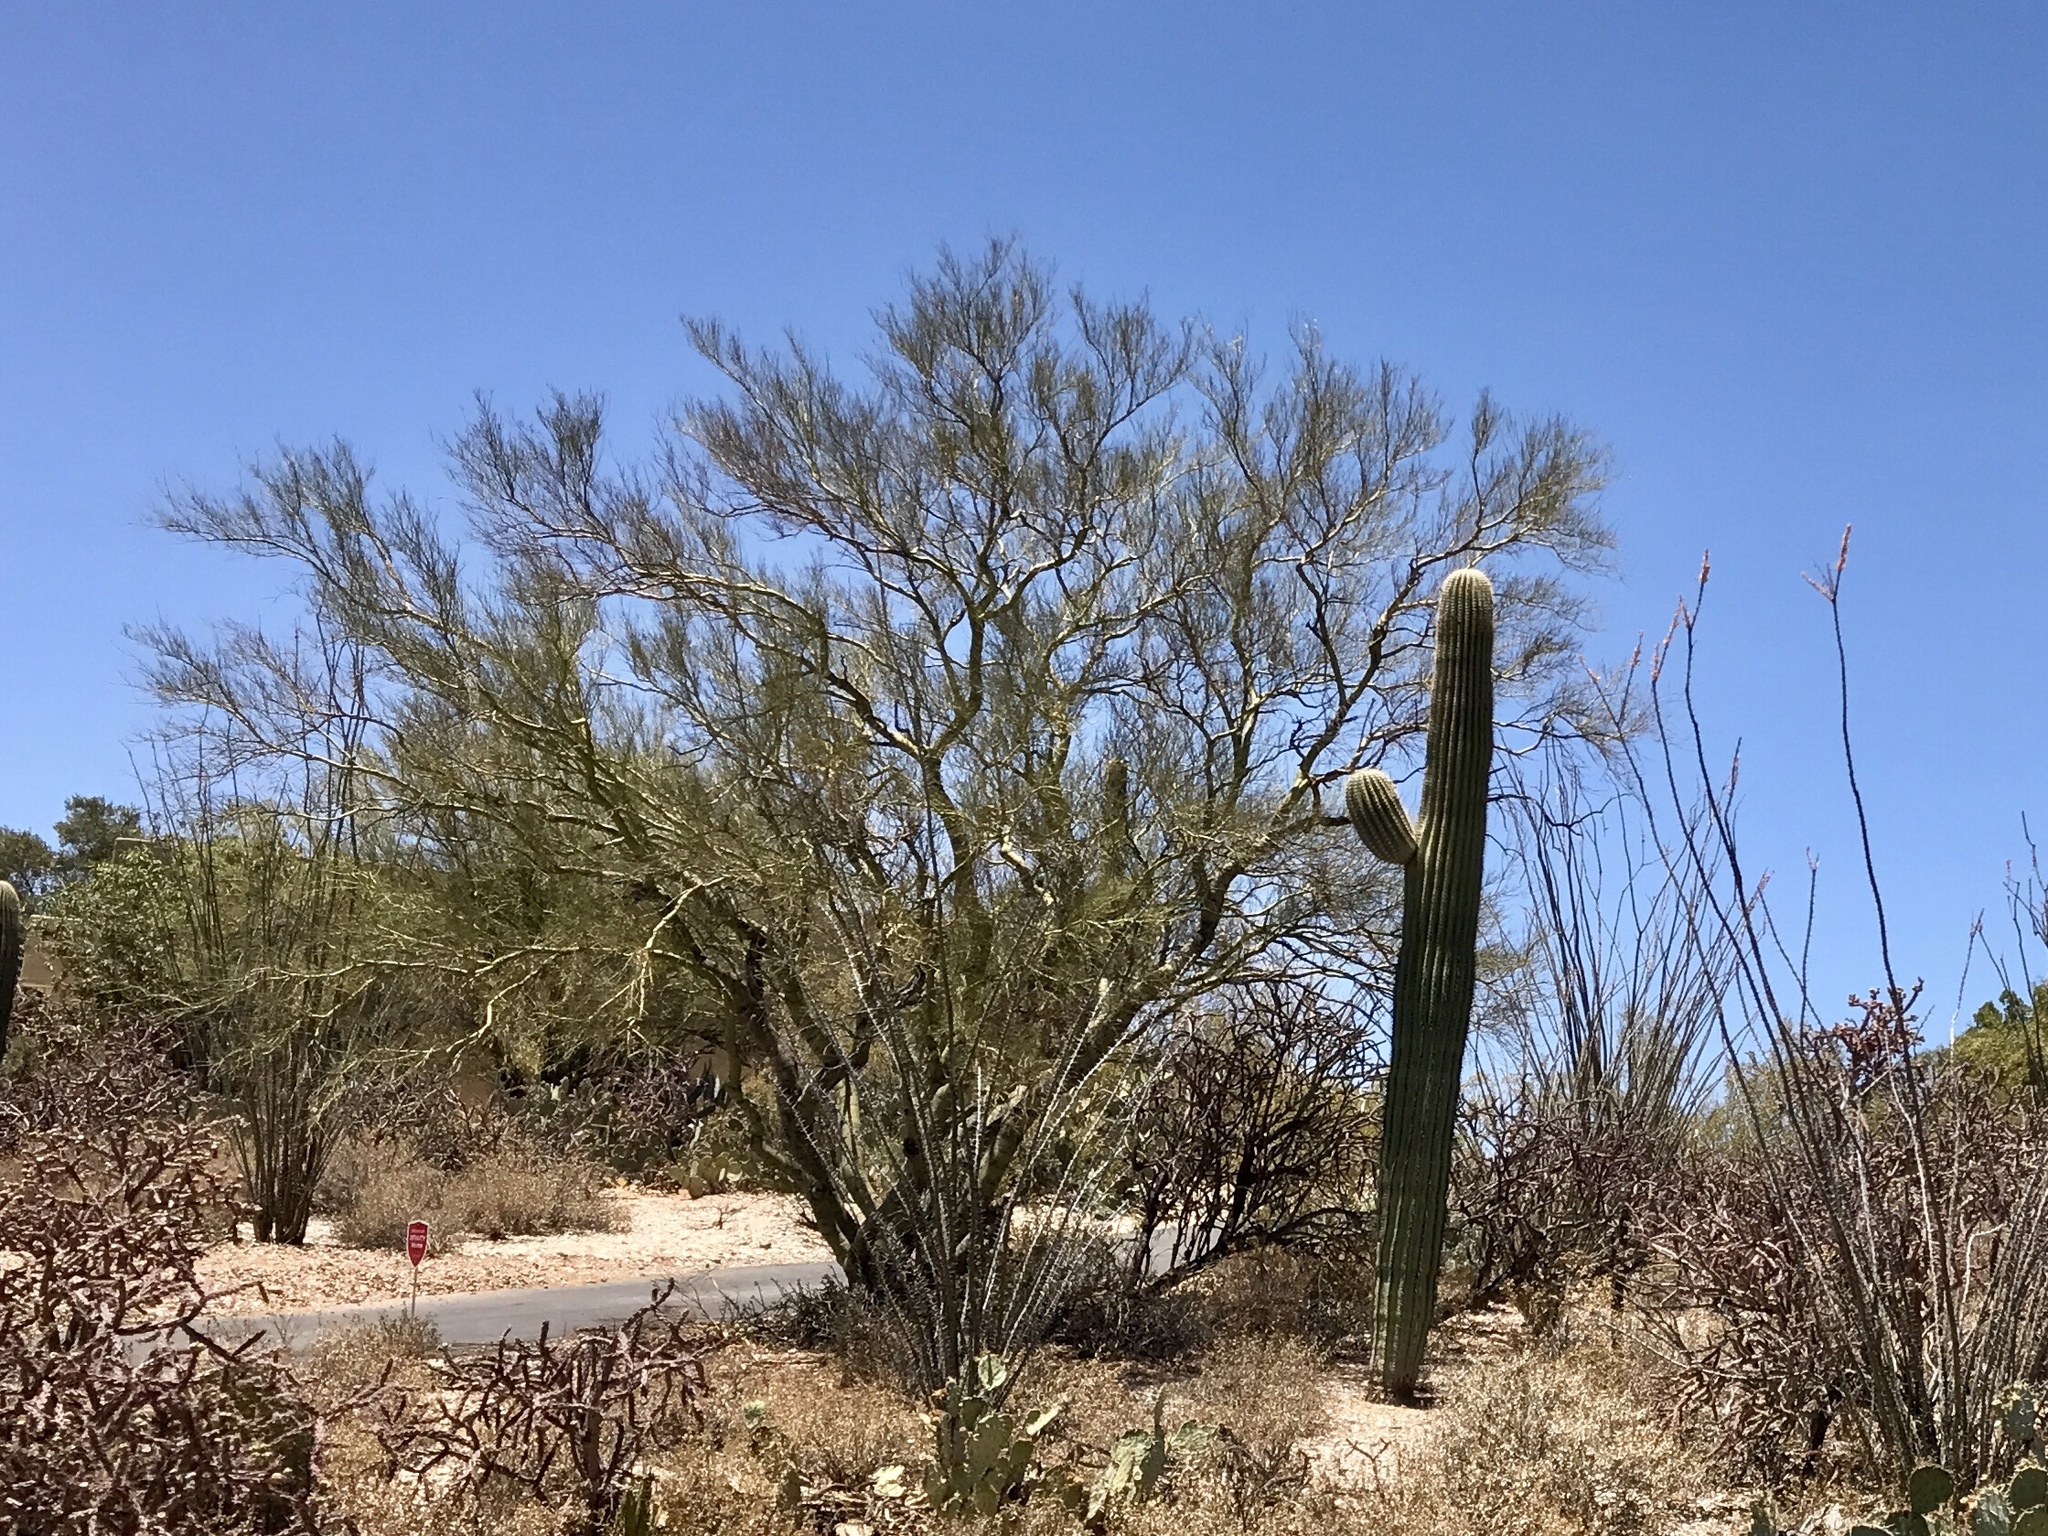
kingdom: Plantae
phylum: Tracheophyta
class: Magnoliopsida
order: Fabales
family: Fabaceae
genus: Parkinsonia
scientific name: Parkinsonia microphylla
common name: Yellow paloverde
